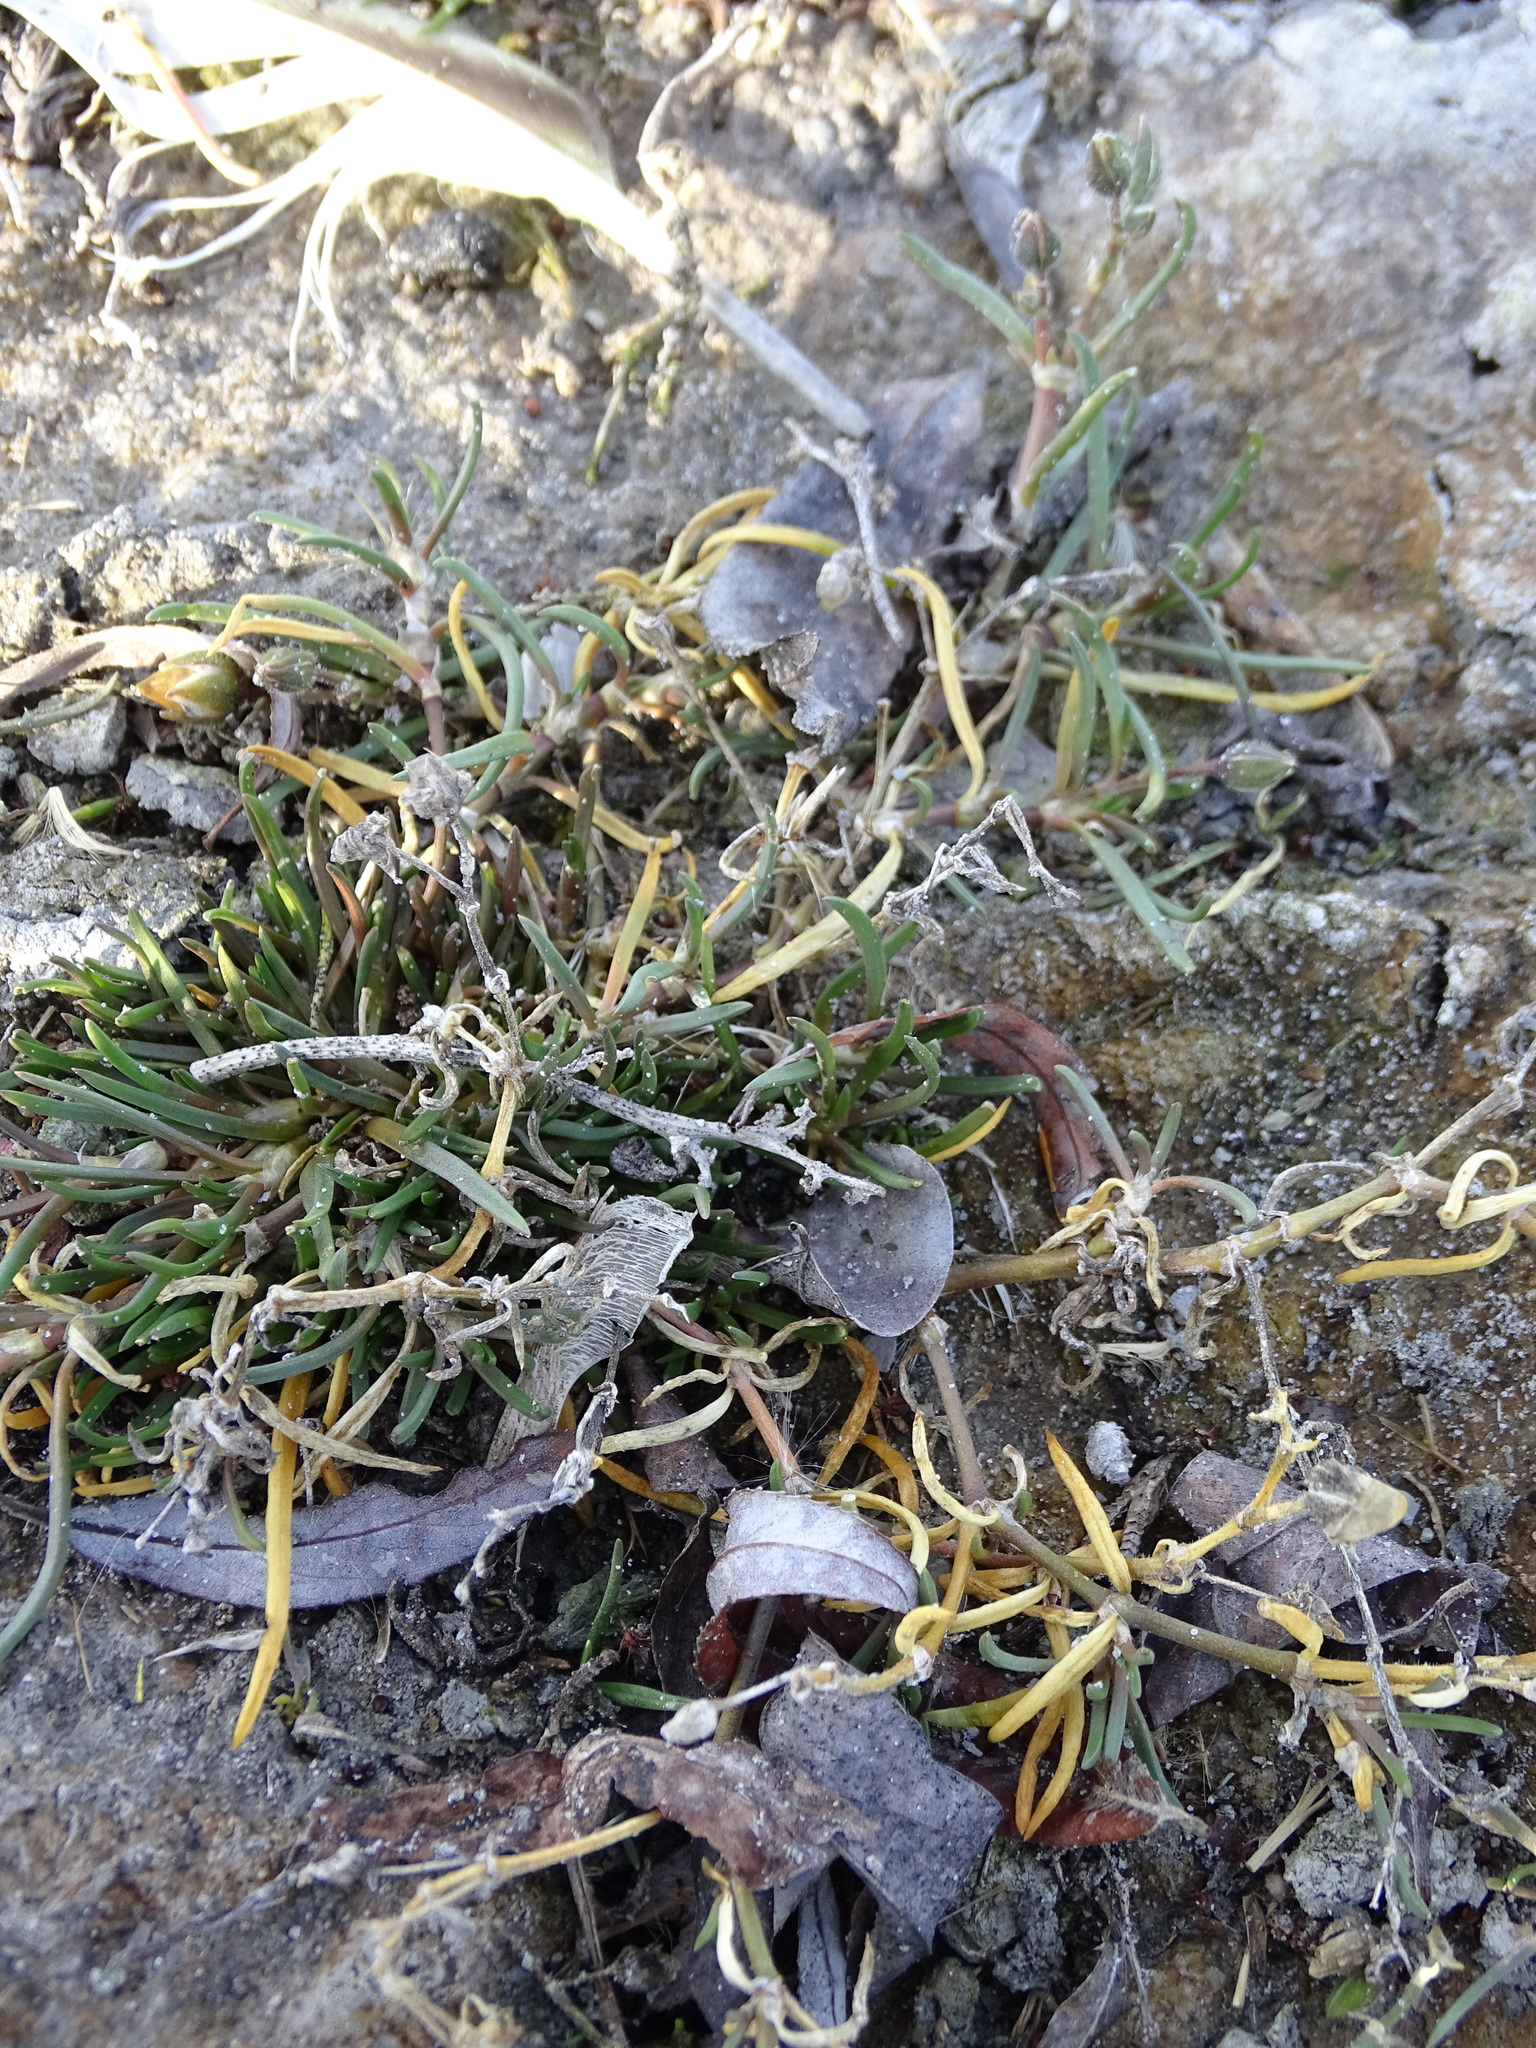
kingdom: Plantae
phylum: Tracheophyta
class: Magnoliopsida
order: Caryophyllales
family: Caryophyllaceae
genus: Spergularia
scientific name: Spergularia media
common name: Greater sea-spurrey
